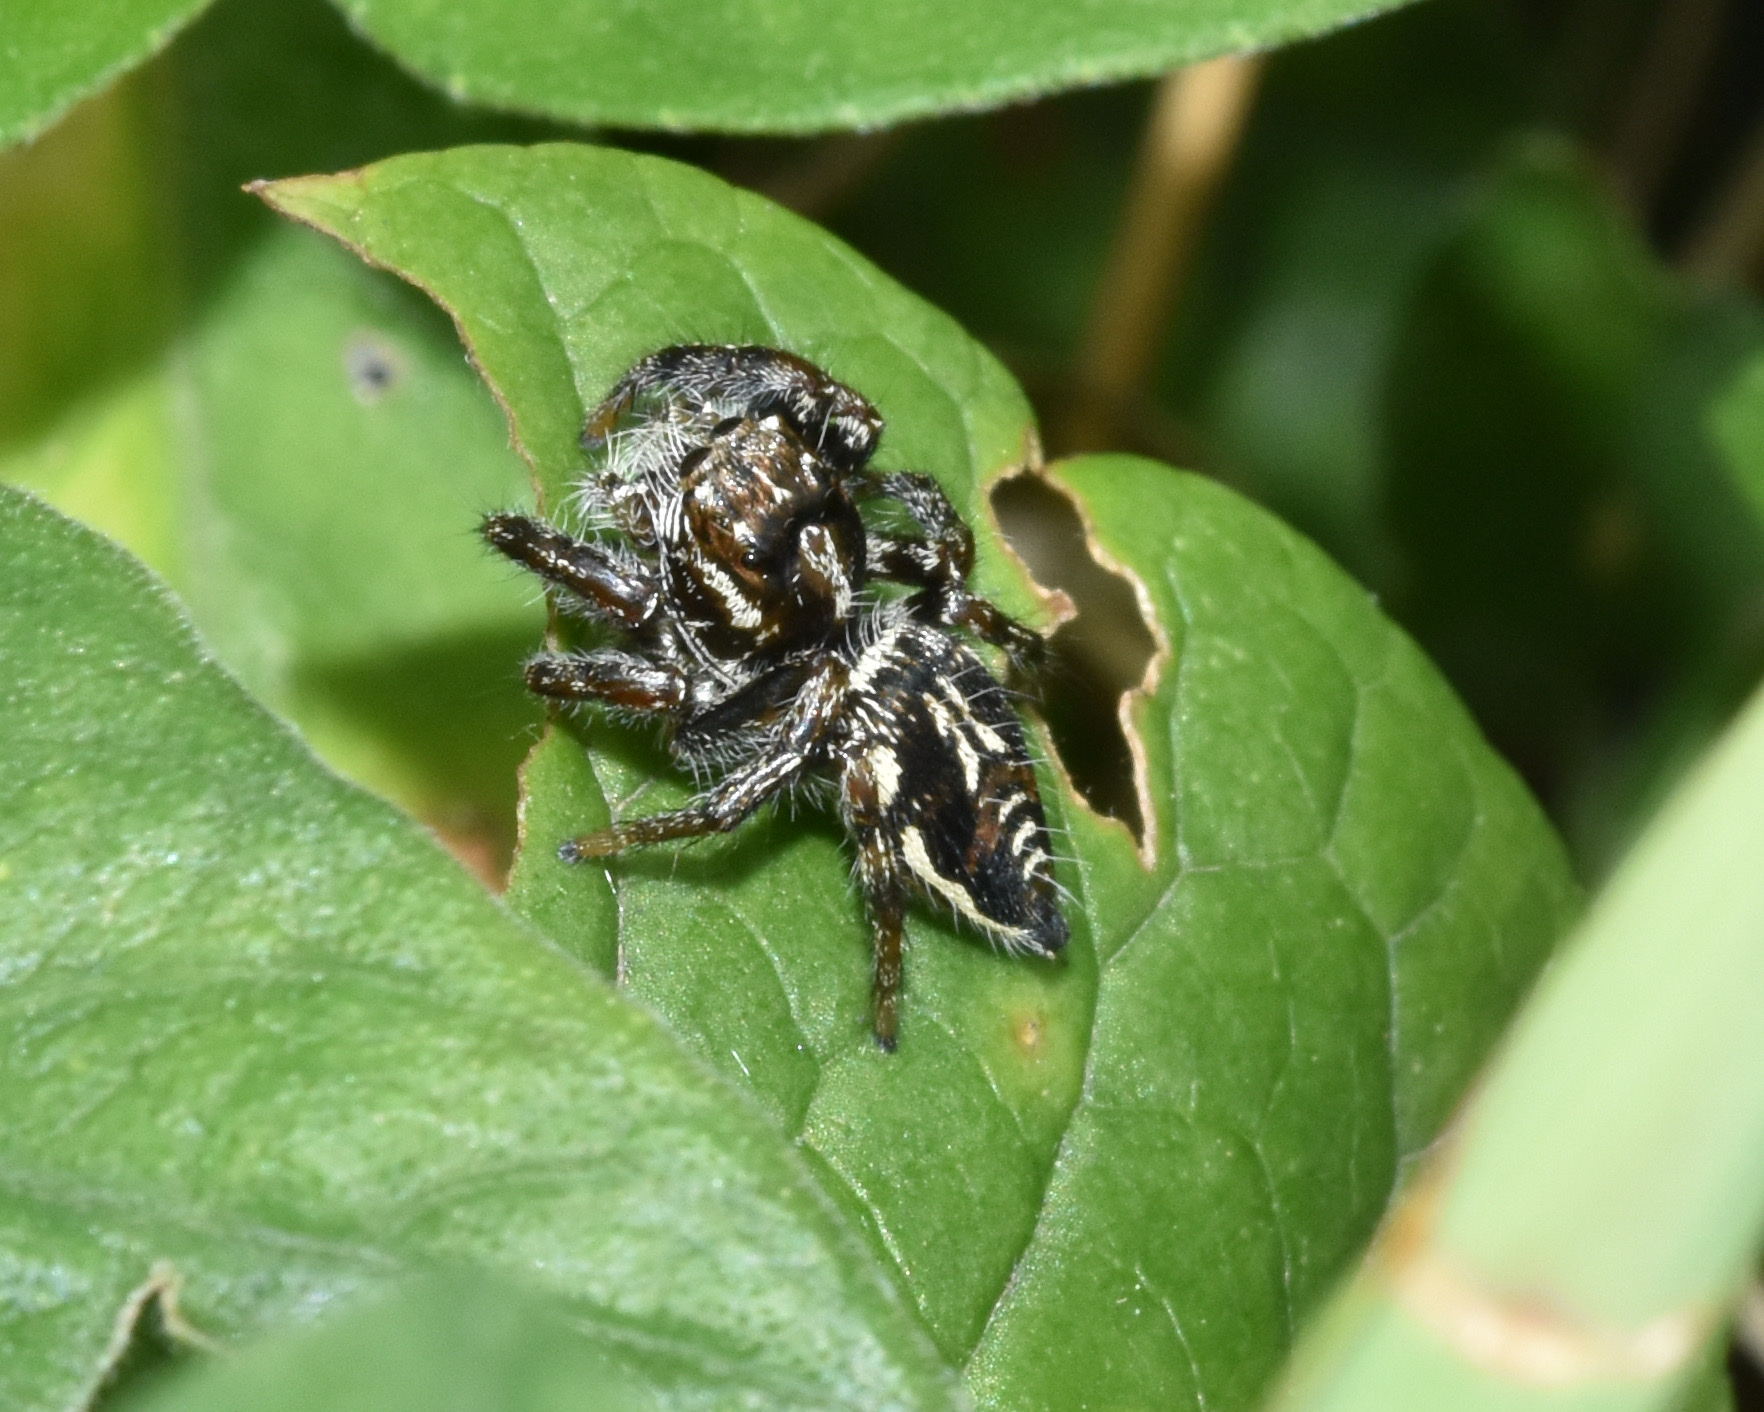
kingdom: Animalia
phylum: Arthropoda
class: Arachnida
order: Araneae
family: Salticidae
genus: Hyllus
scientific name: Hyllus argyrotoxus
